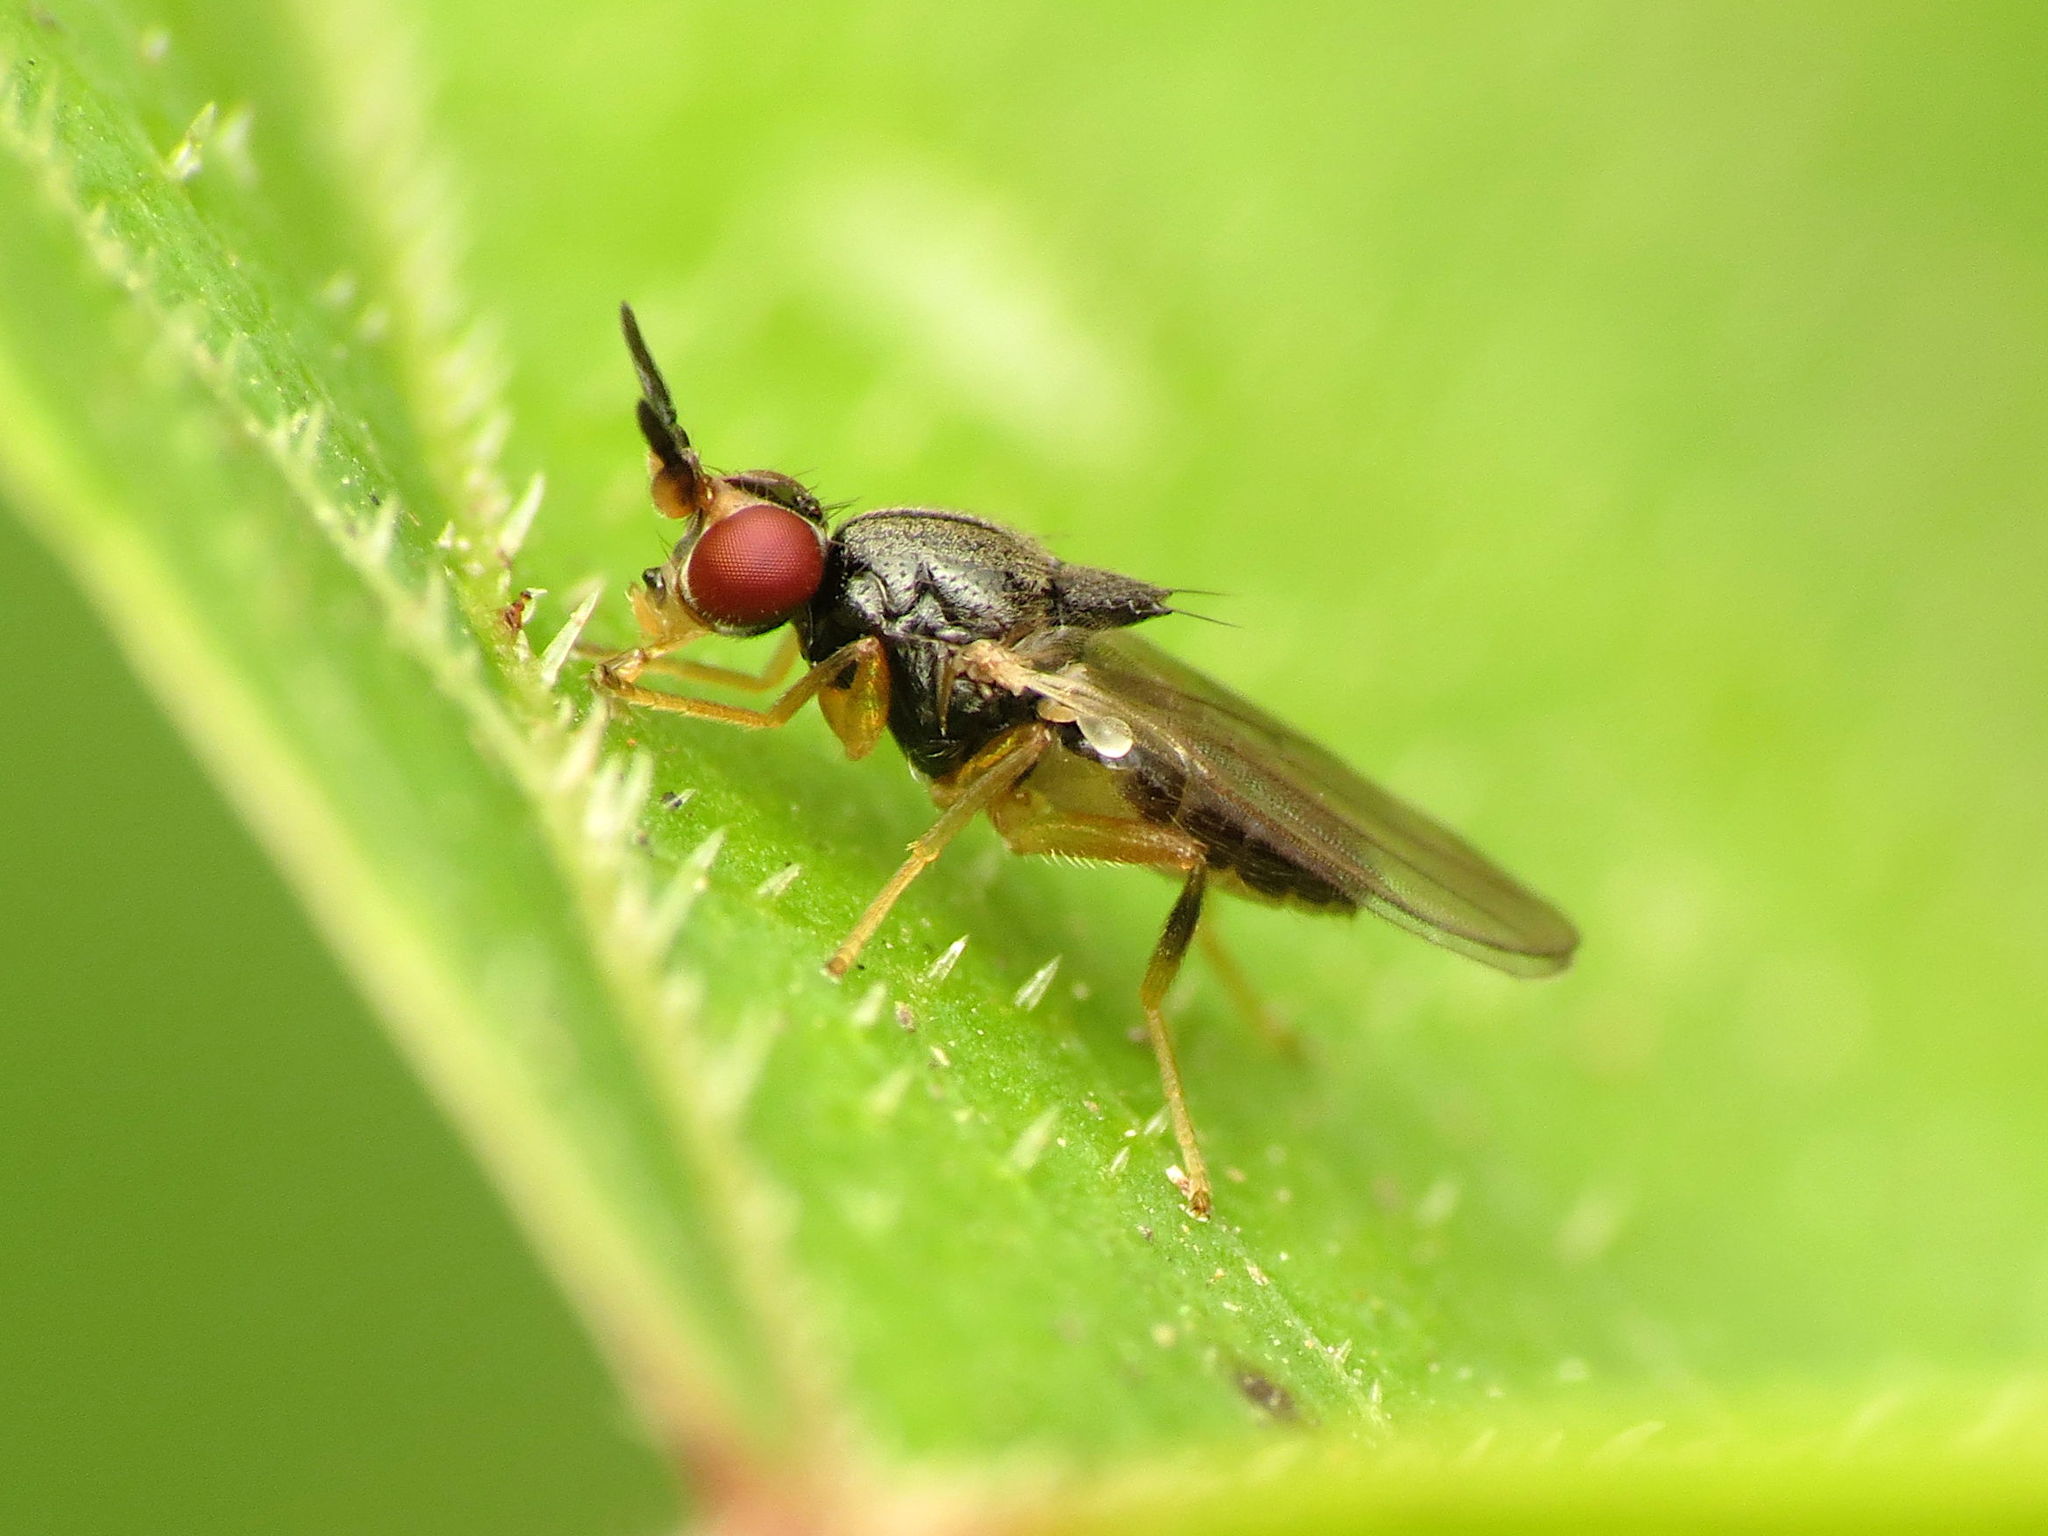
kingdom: Animalia
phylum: Arthropoda
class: Insecta
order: Diptera
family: Chloropidae
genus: Ceratobarys
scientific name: Ceratobarys costata
